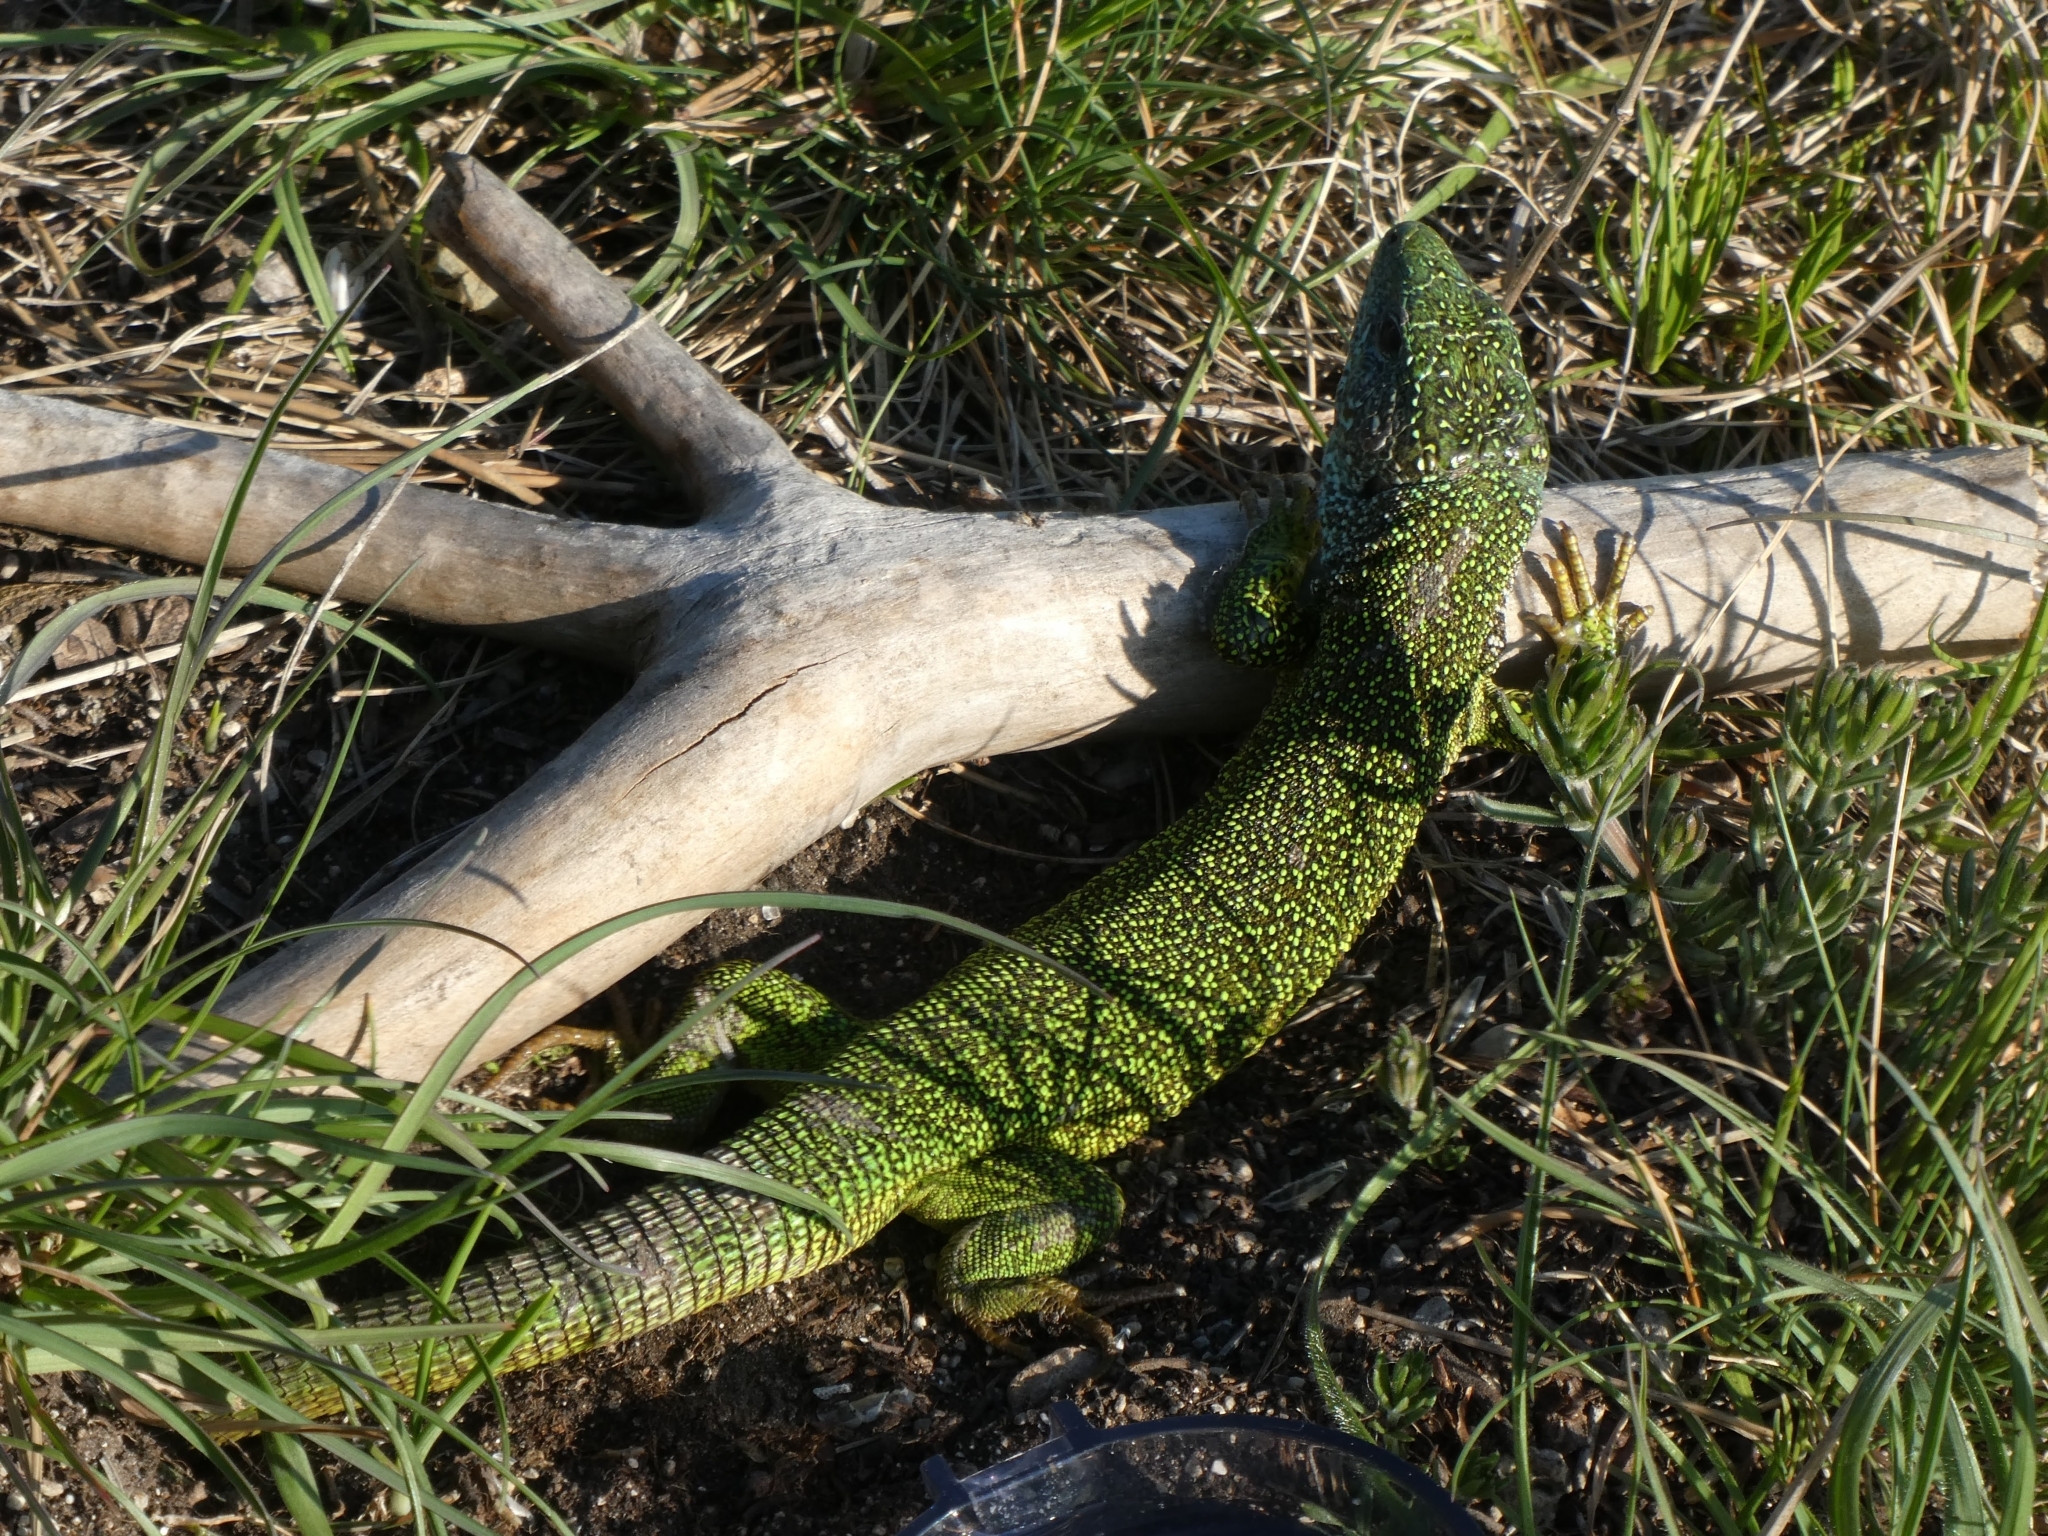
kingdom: Animalia
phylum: Chordata
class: Squamata
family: Lacertidae
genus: Lacerta
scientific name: Lacerta viridis
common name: European green lizard
